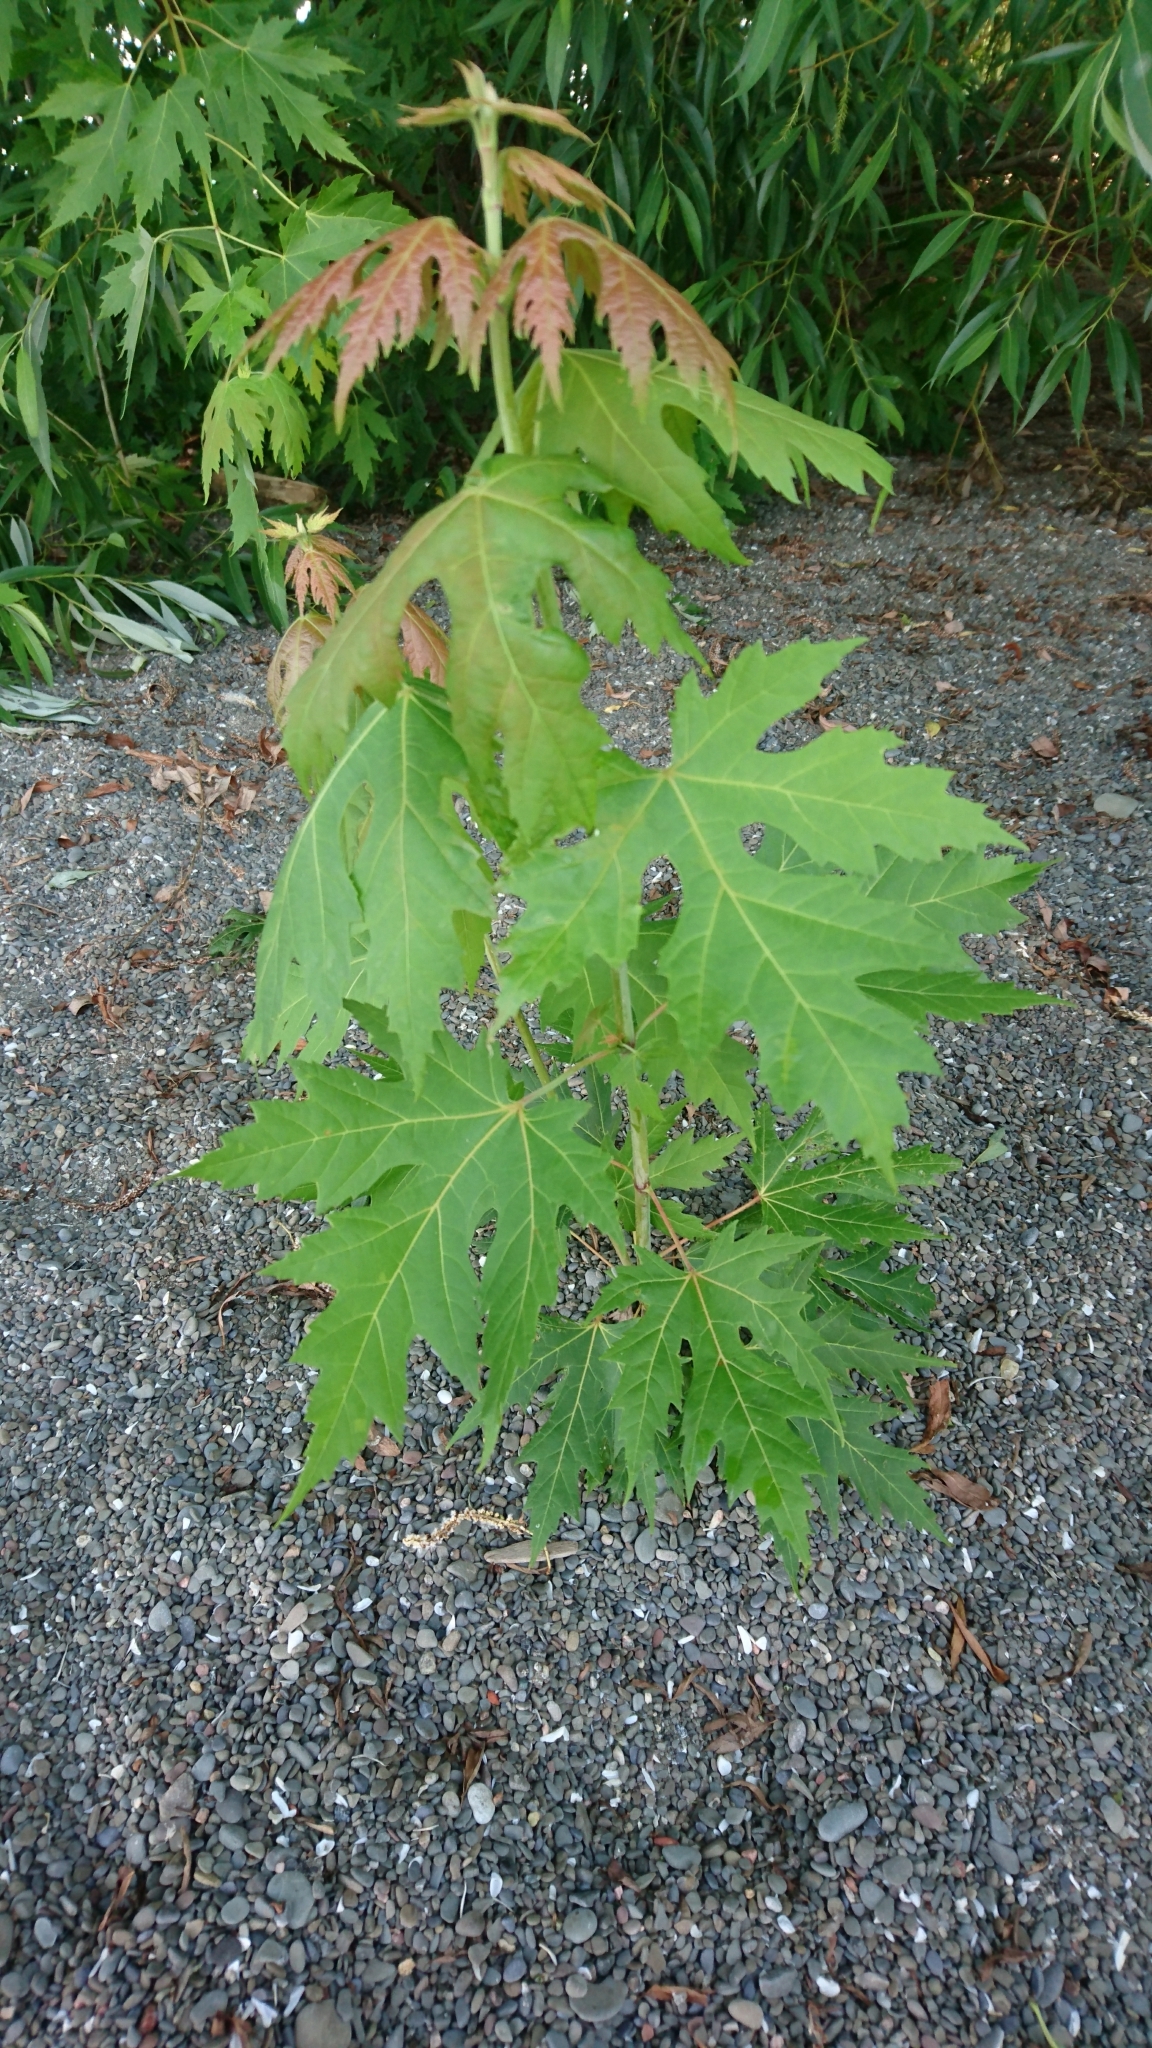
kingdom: Plantae
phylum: Tracheophyta
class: Magnoliopsida
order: Sapindales
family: Sapindaceae
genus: Acer
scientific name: Acer saccharinum
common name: Silver maple
